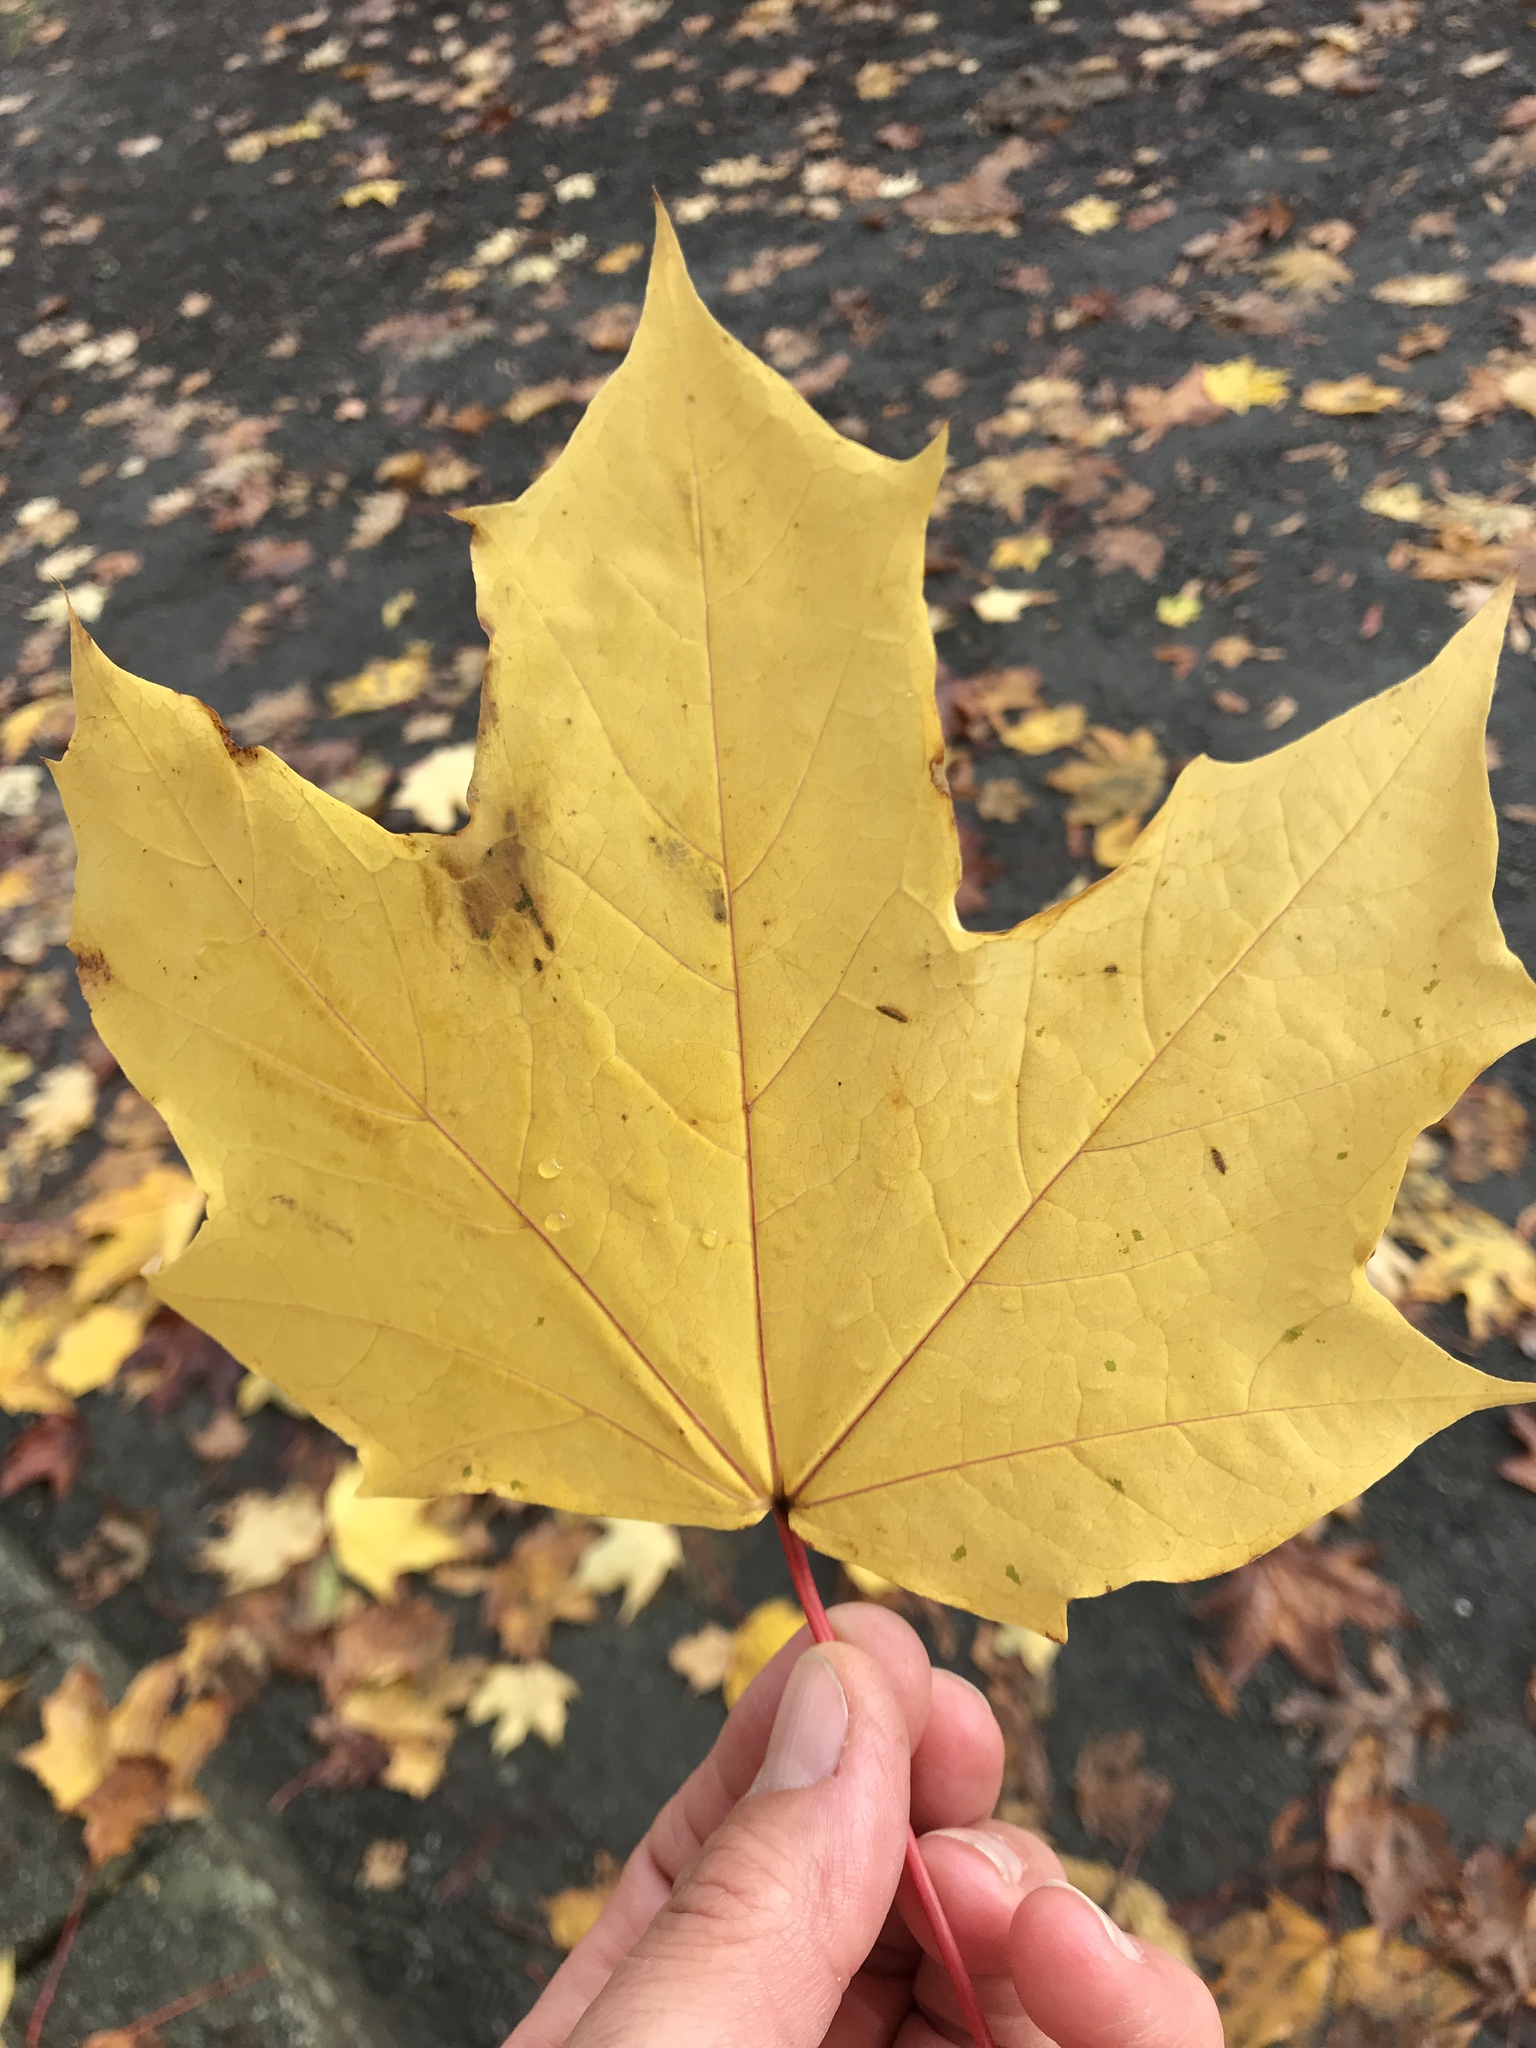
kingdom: Plantae
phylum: Tracheophyta
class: Magnoliopsida
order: Sapindales
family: Sapindaceae
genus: Acer
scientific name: Acer platanoides
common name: Norway maple
